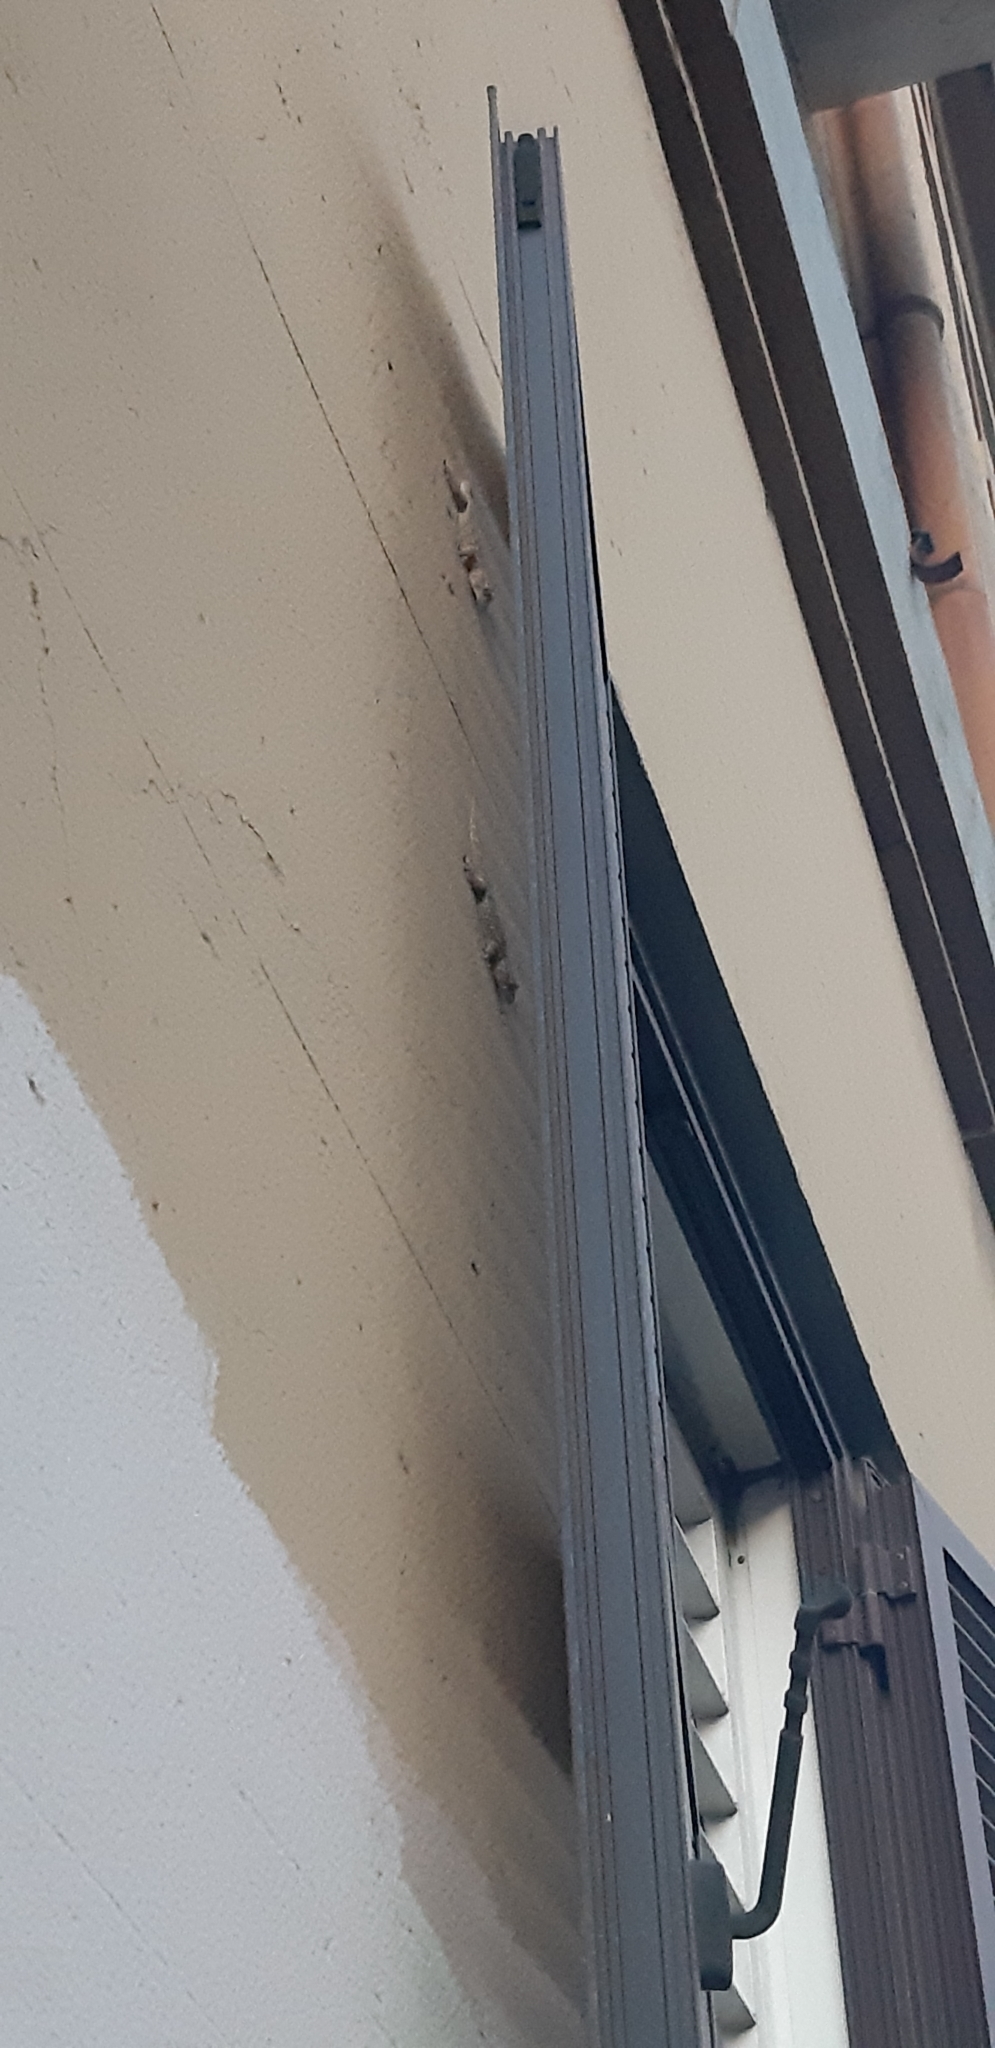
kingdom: Animalia
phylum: Chordata
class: Squamata
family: Phyllodactylidae
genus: Tarentola
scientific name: Tarentola mauritanica
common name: Moorish gecko
